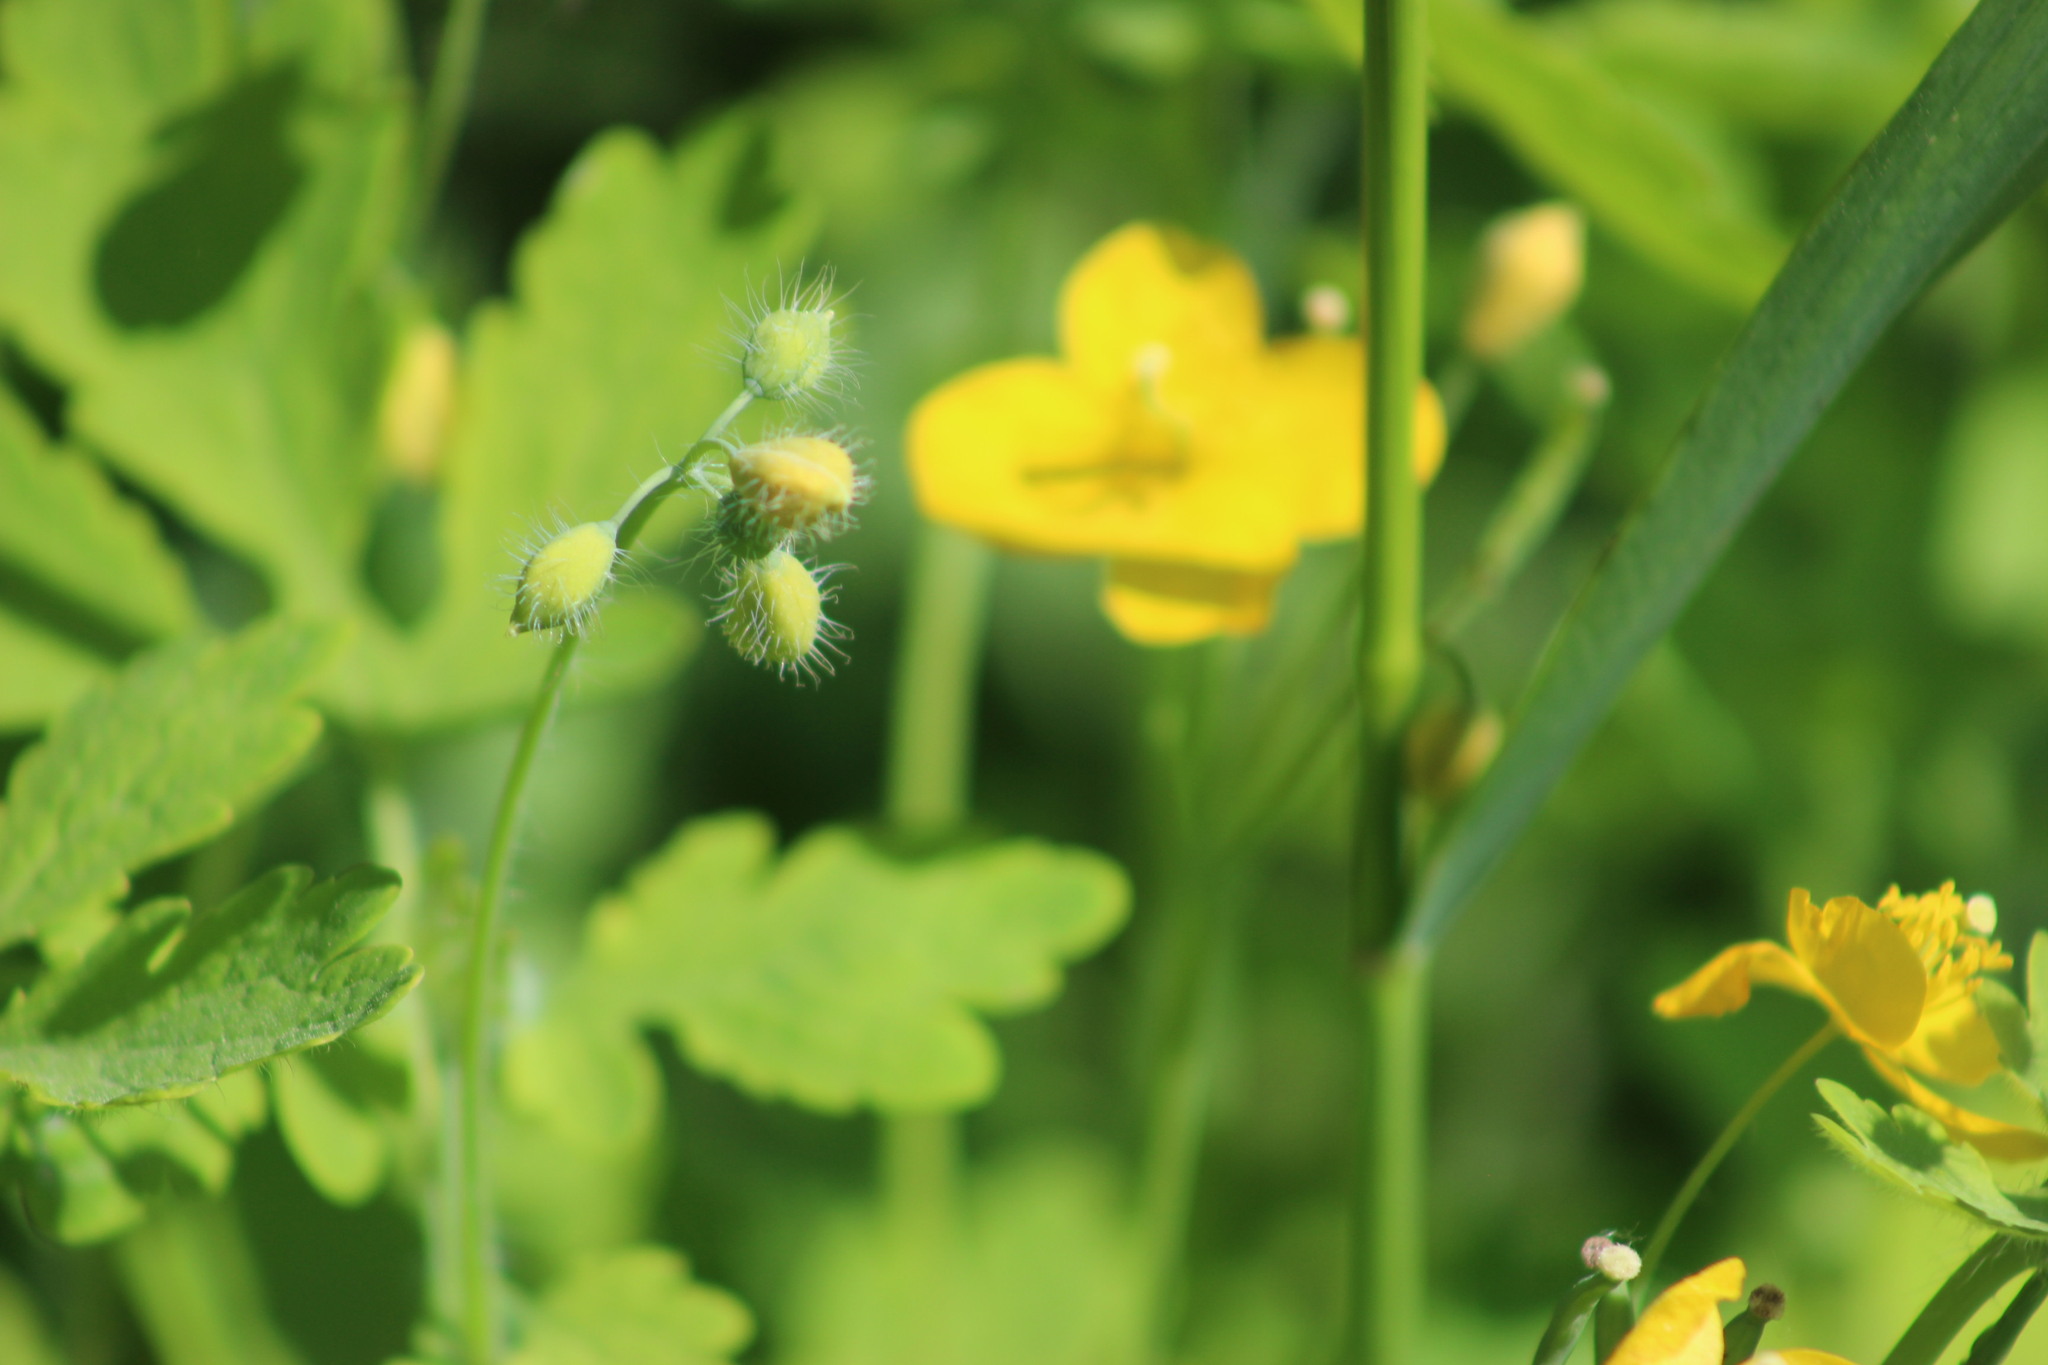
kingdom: Plantae
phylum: Tracheophyta
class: Magnoliopsida
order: Ranunculales
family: Papaveraceae
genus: Chelidonium
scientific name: Chelidonium majus
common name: Greater celandine
